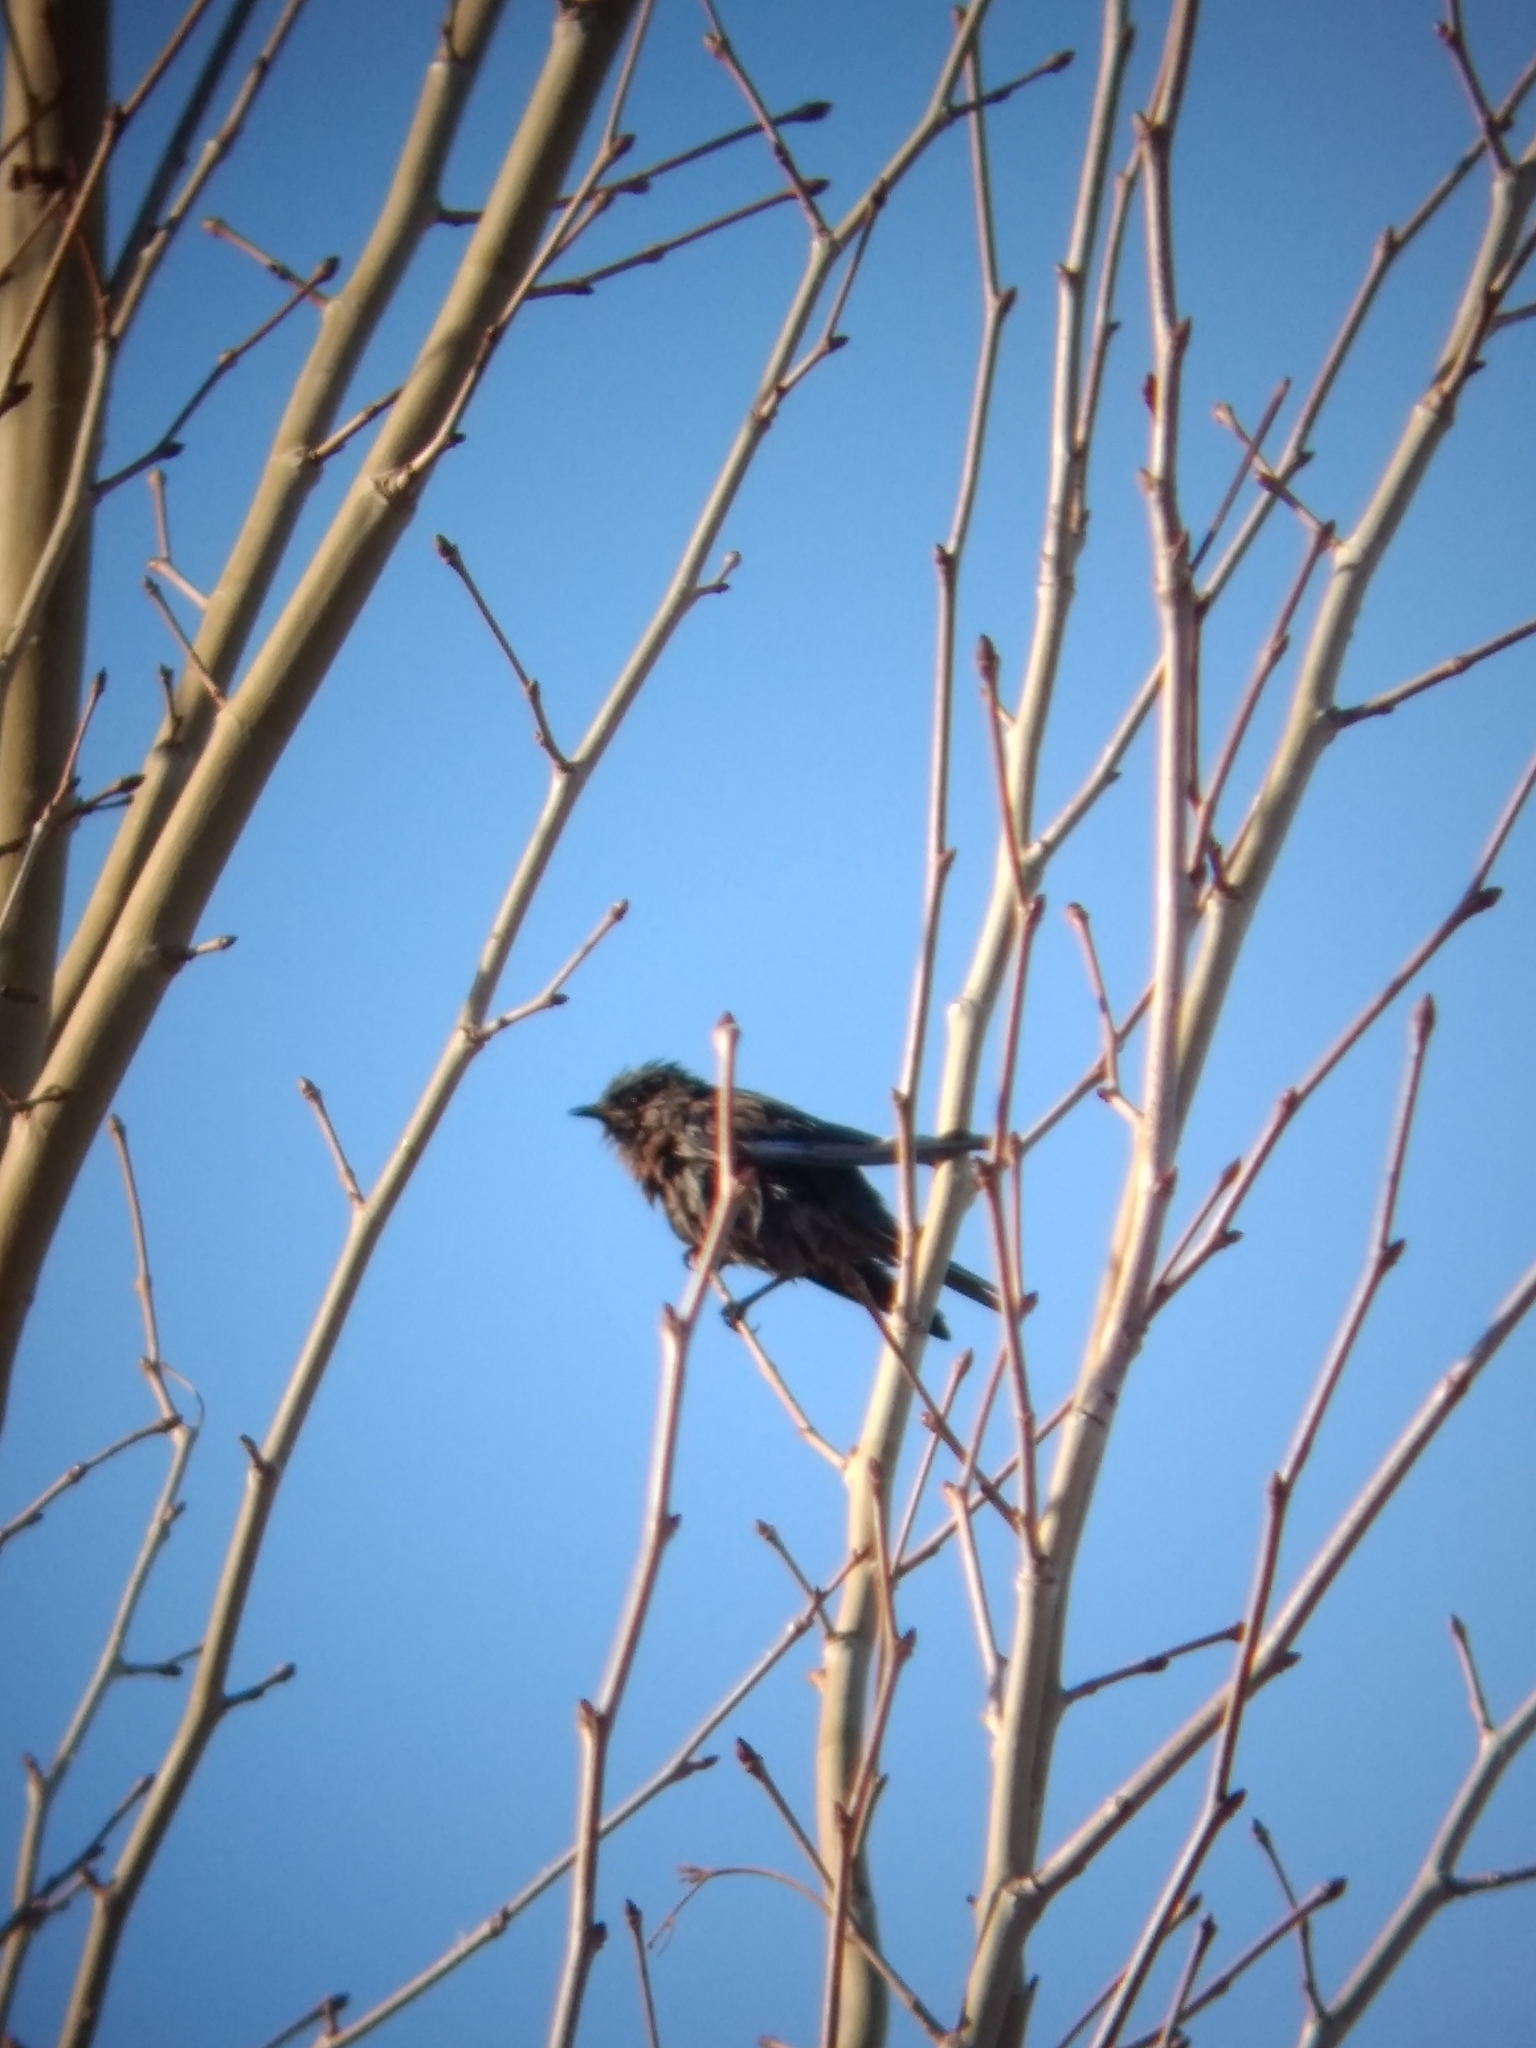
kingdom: Animalia
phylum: Chordata
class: Aves
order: Passeriformes
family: Turdidae
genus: Sialia
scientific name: Sialia mexicana
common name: Western bluebird
